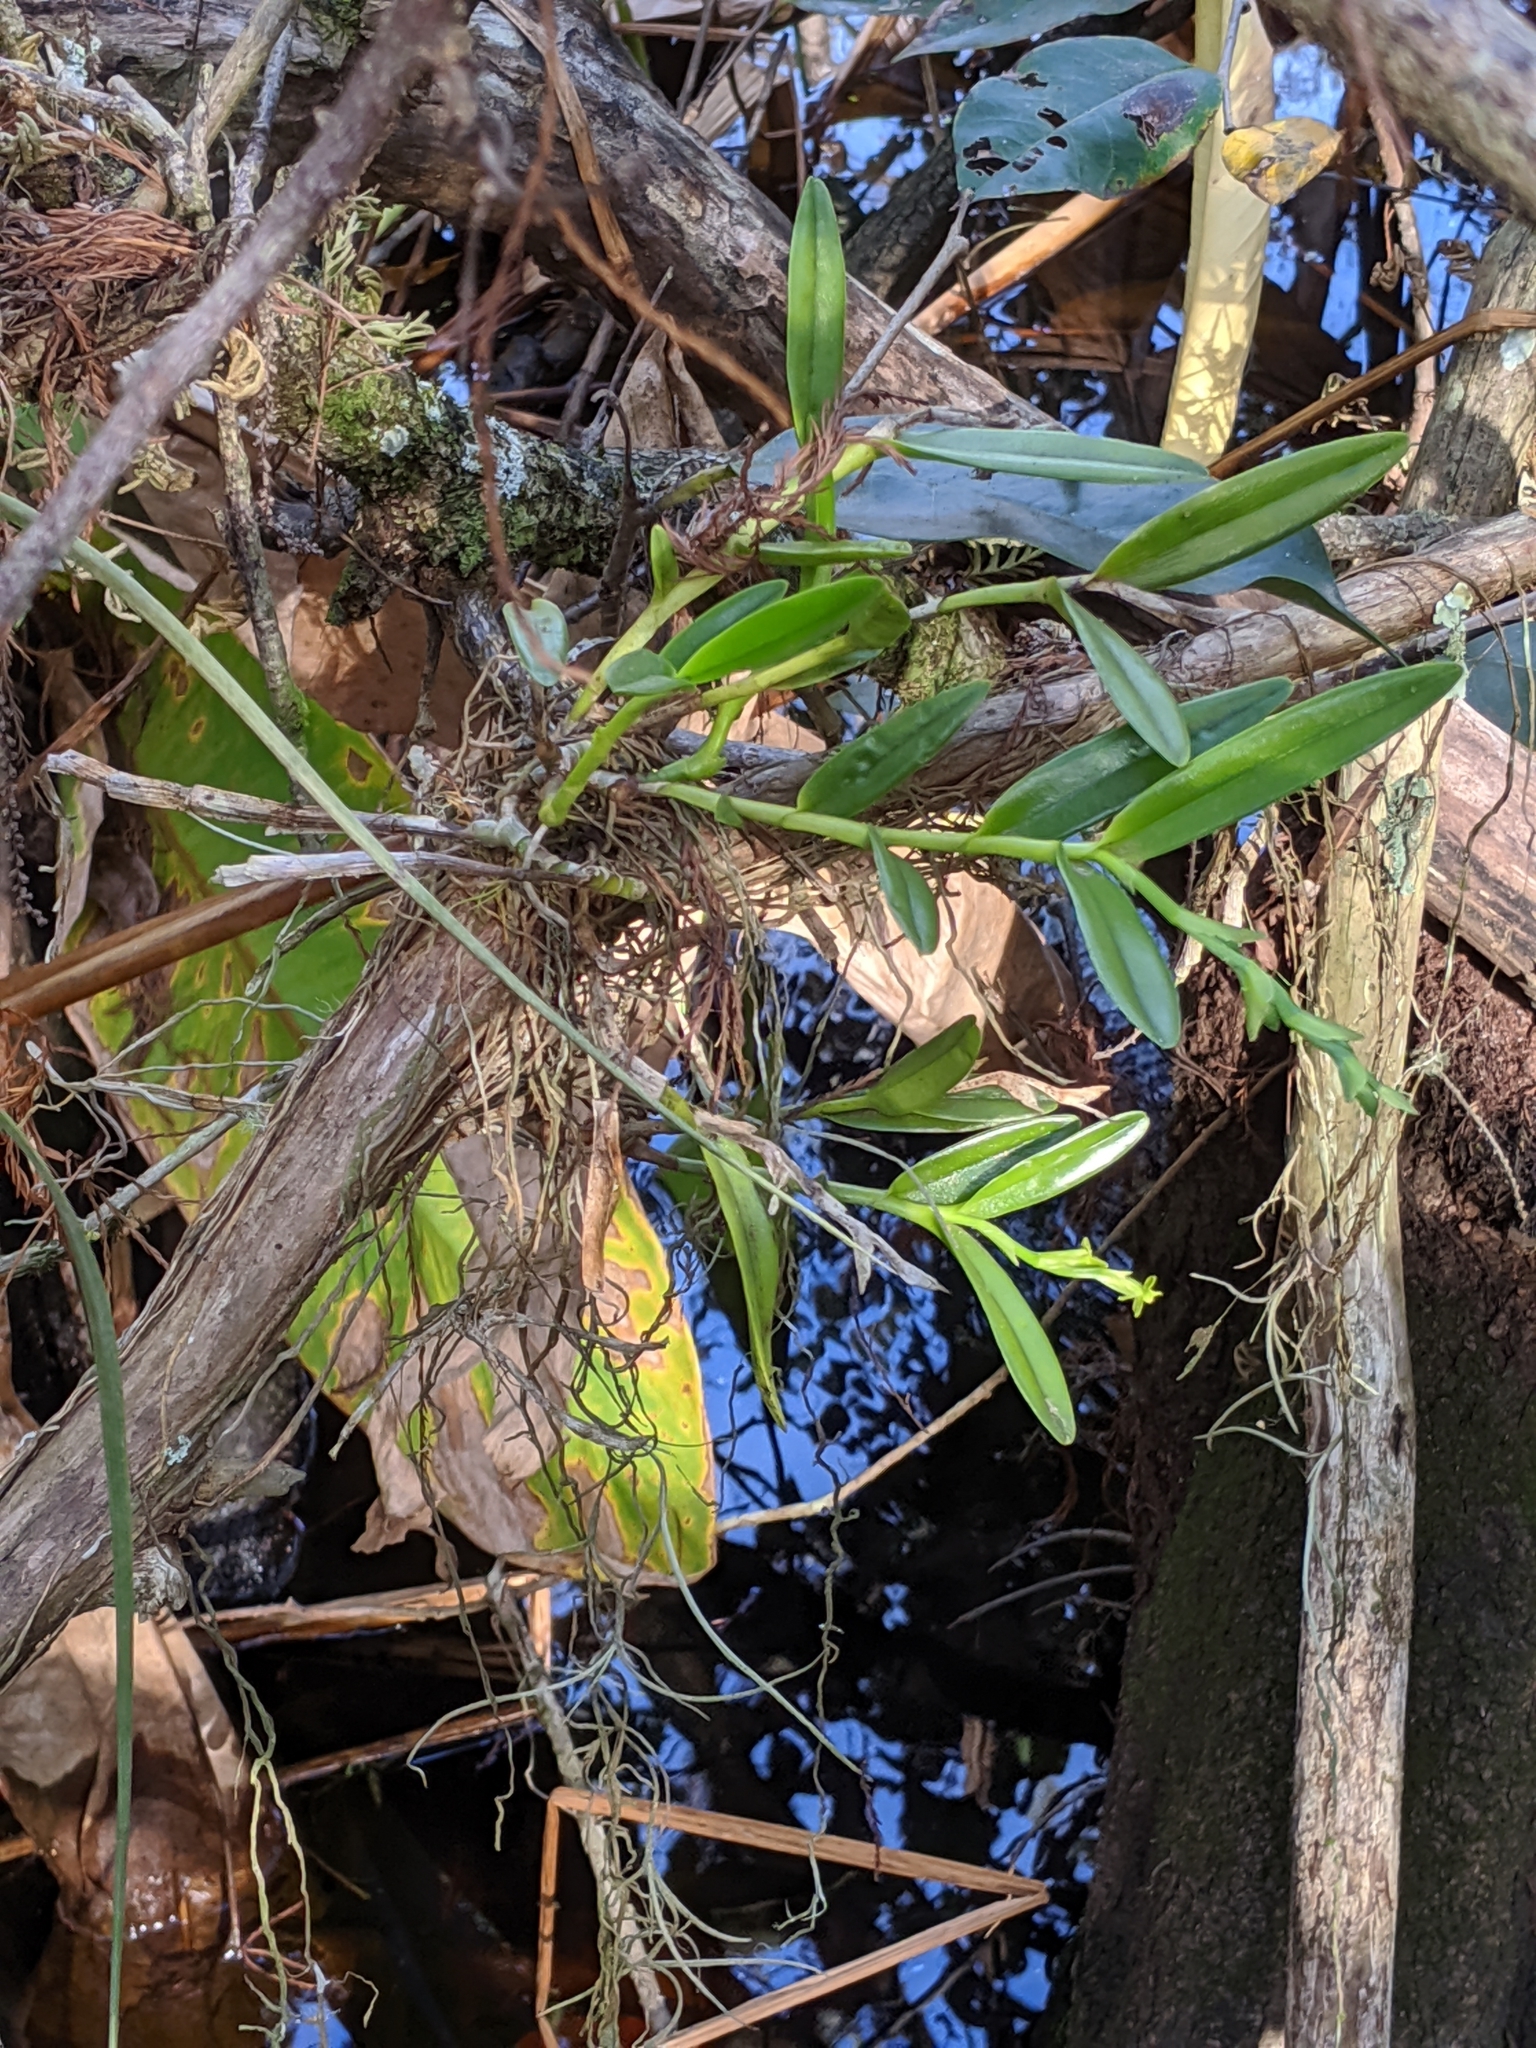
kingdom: Plantae
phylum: Tracheophyta
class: Liliopsida
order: Asparagales
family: Orchidaceae
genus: Epidendrum
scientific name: Epidendrum rigidum
